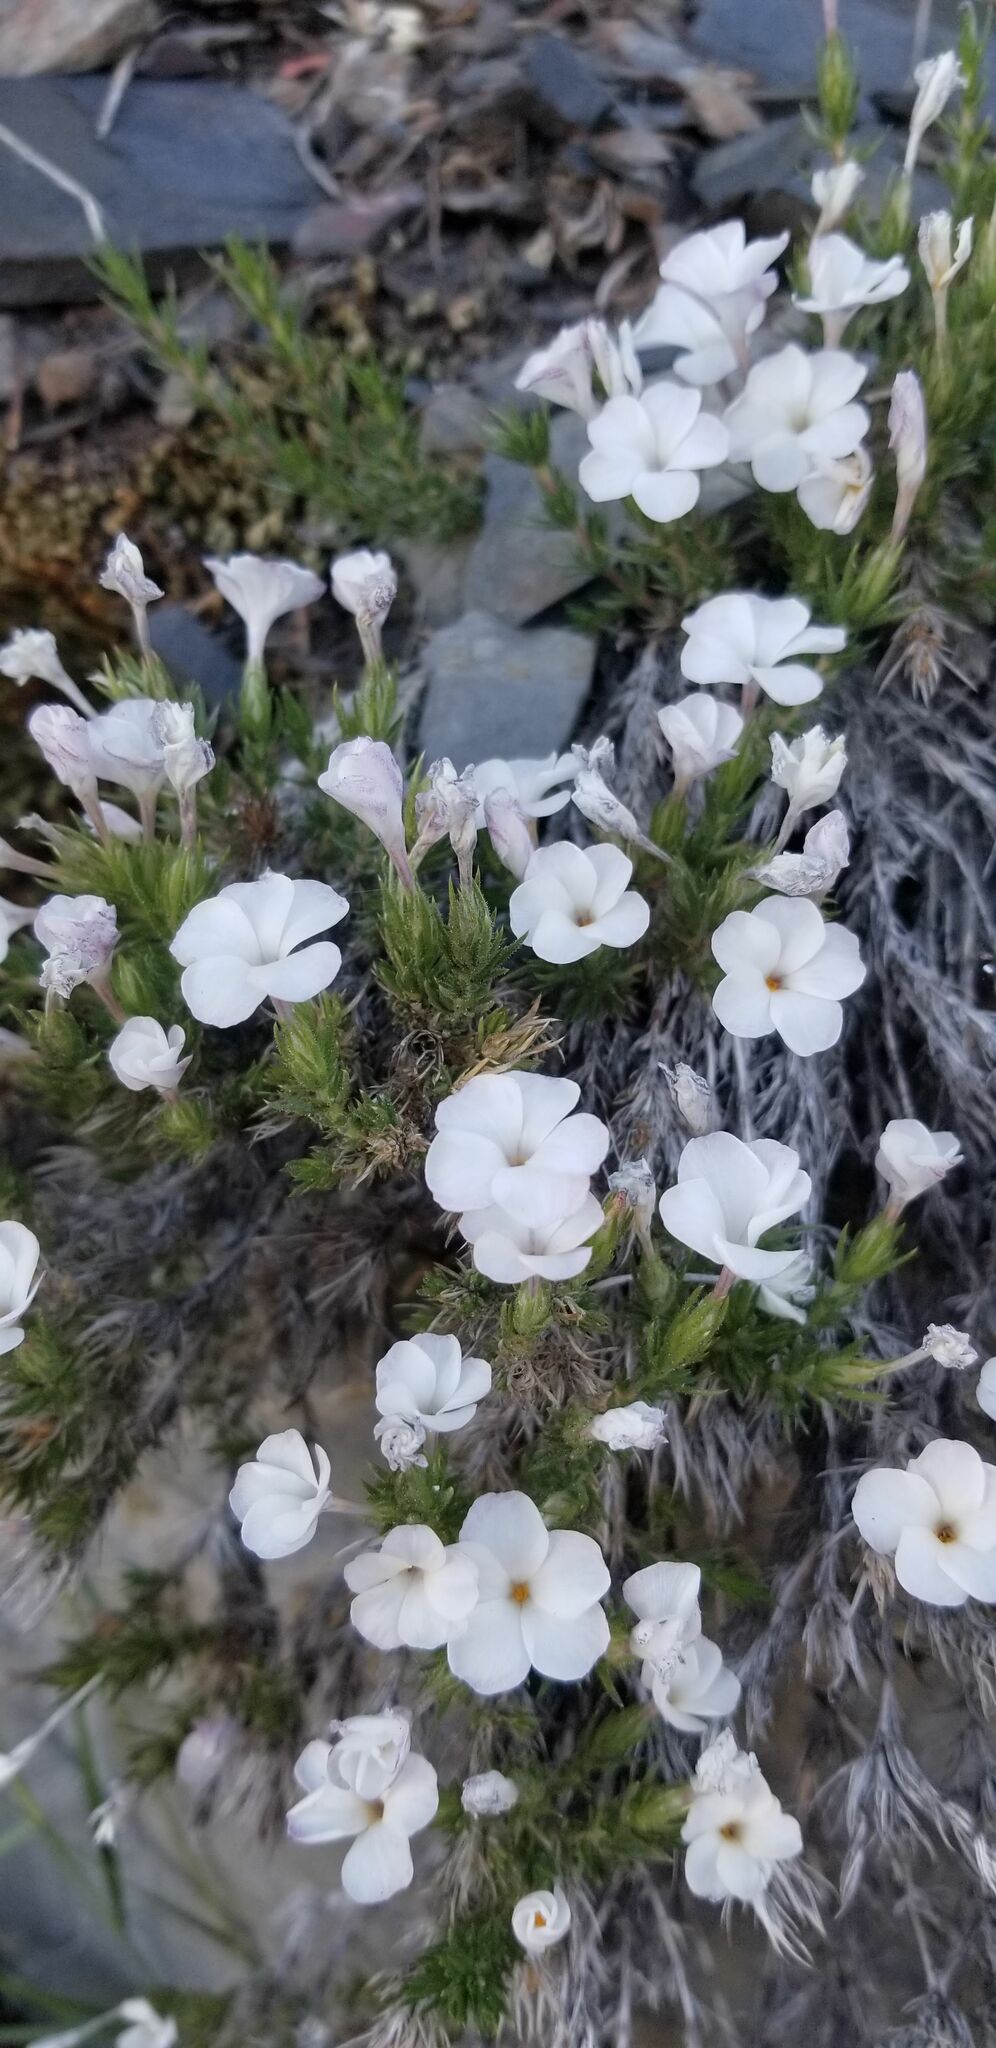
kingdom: Plantae
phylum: Tracheophyta
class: Magnoliopsida
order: Ericales
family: Polemoniaceae
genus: Linanthus
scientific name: Linanthus pungens
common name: Granite prickly phlox
